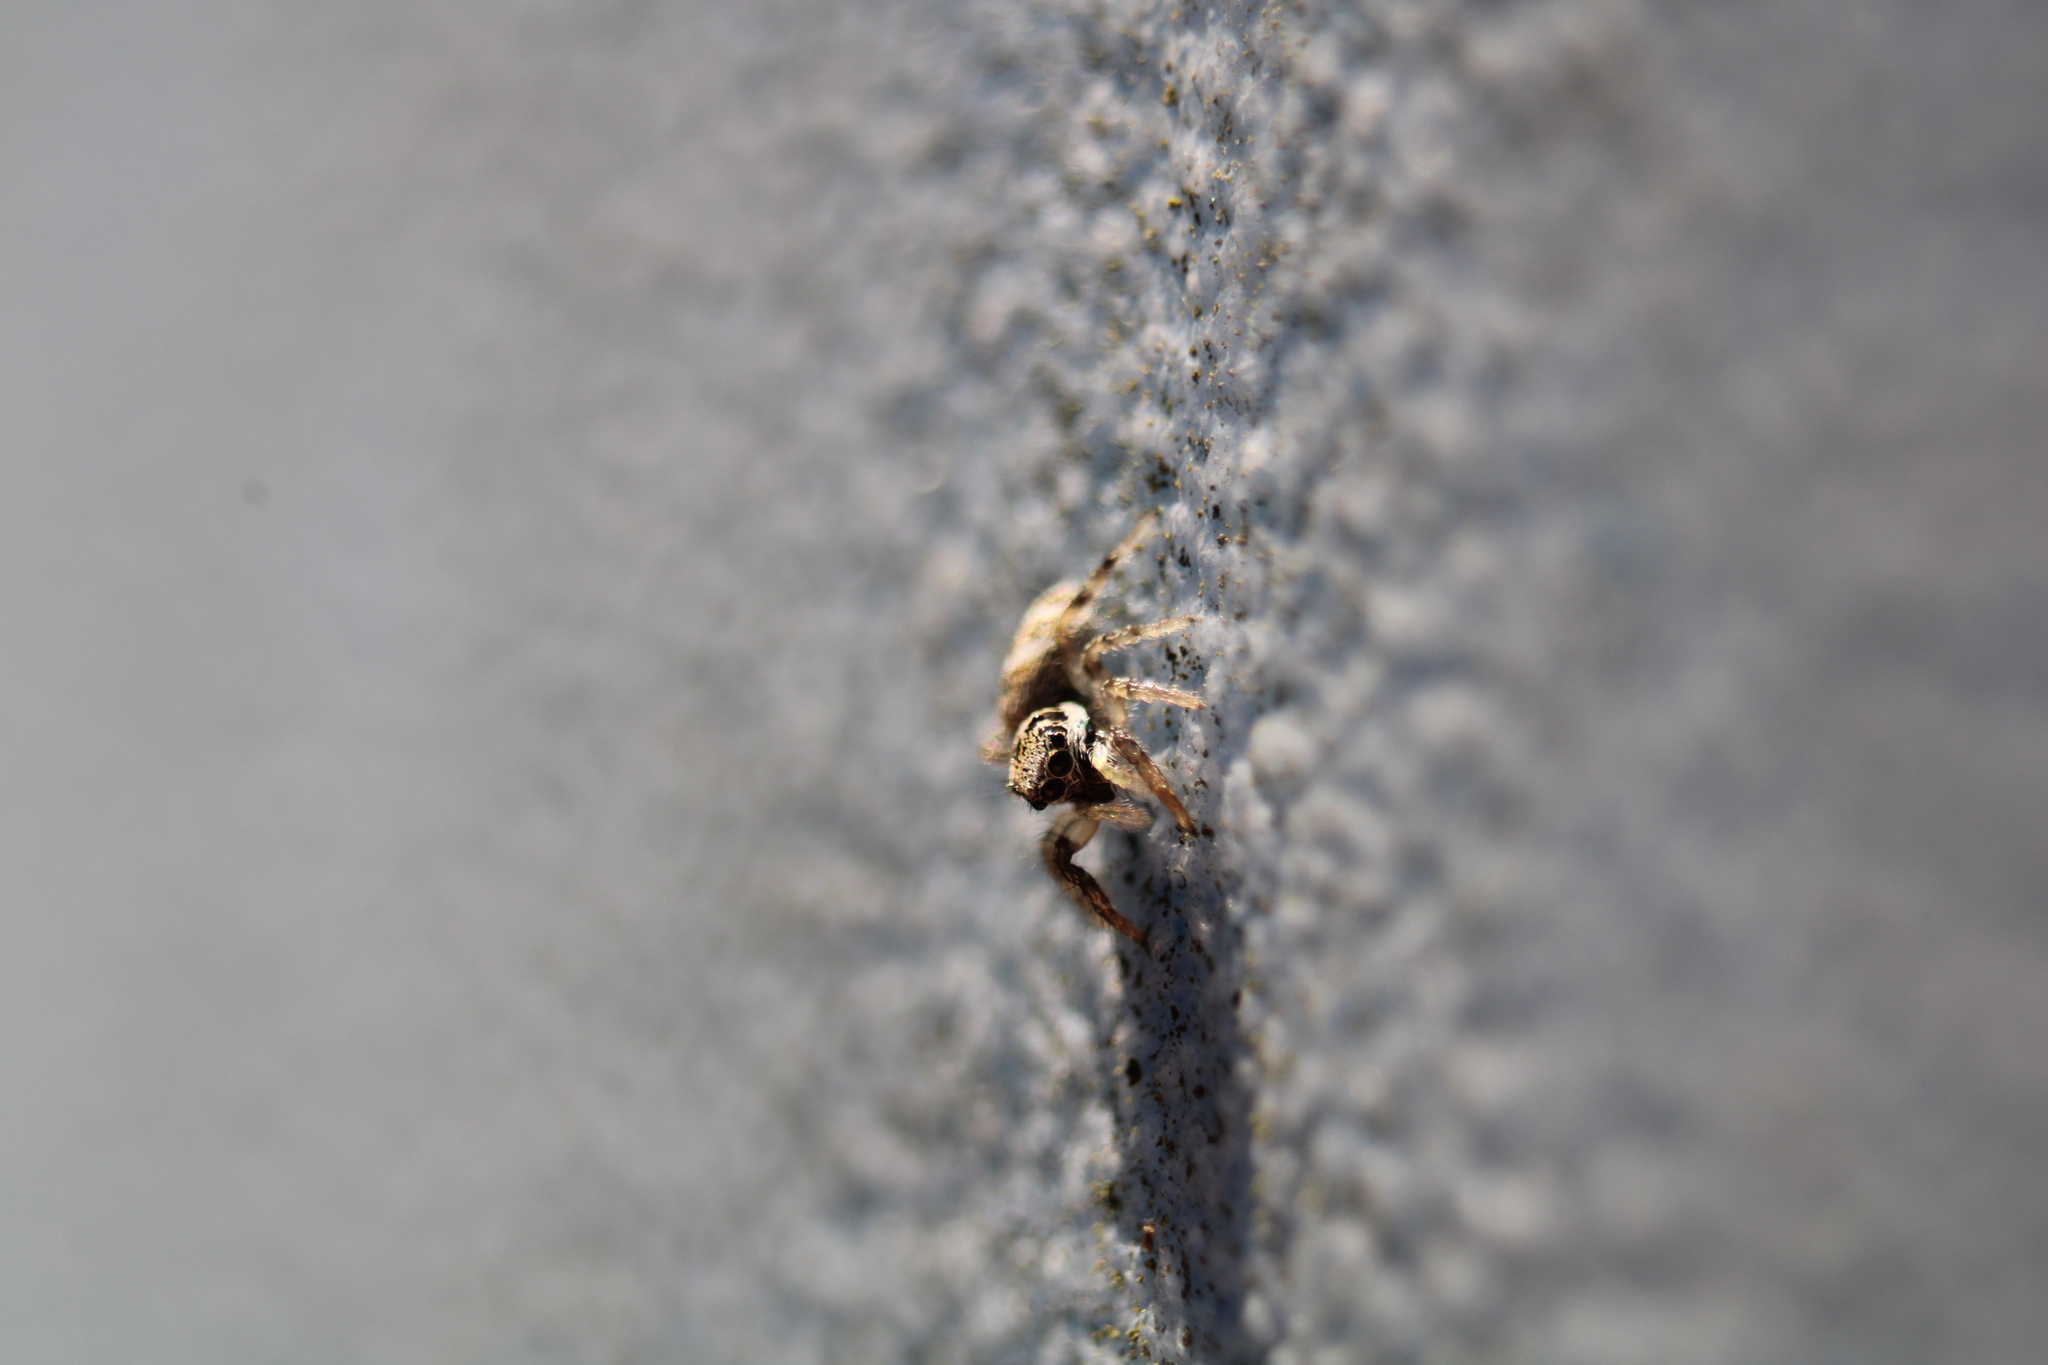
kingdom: Animalia
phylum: Arthropoda
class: Arachnida
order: Araneae
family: Salticidae
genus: Salticus
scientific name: Salticus scenicus
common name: Zebra jumper
